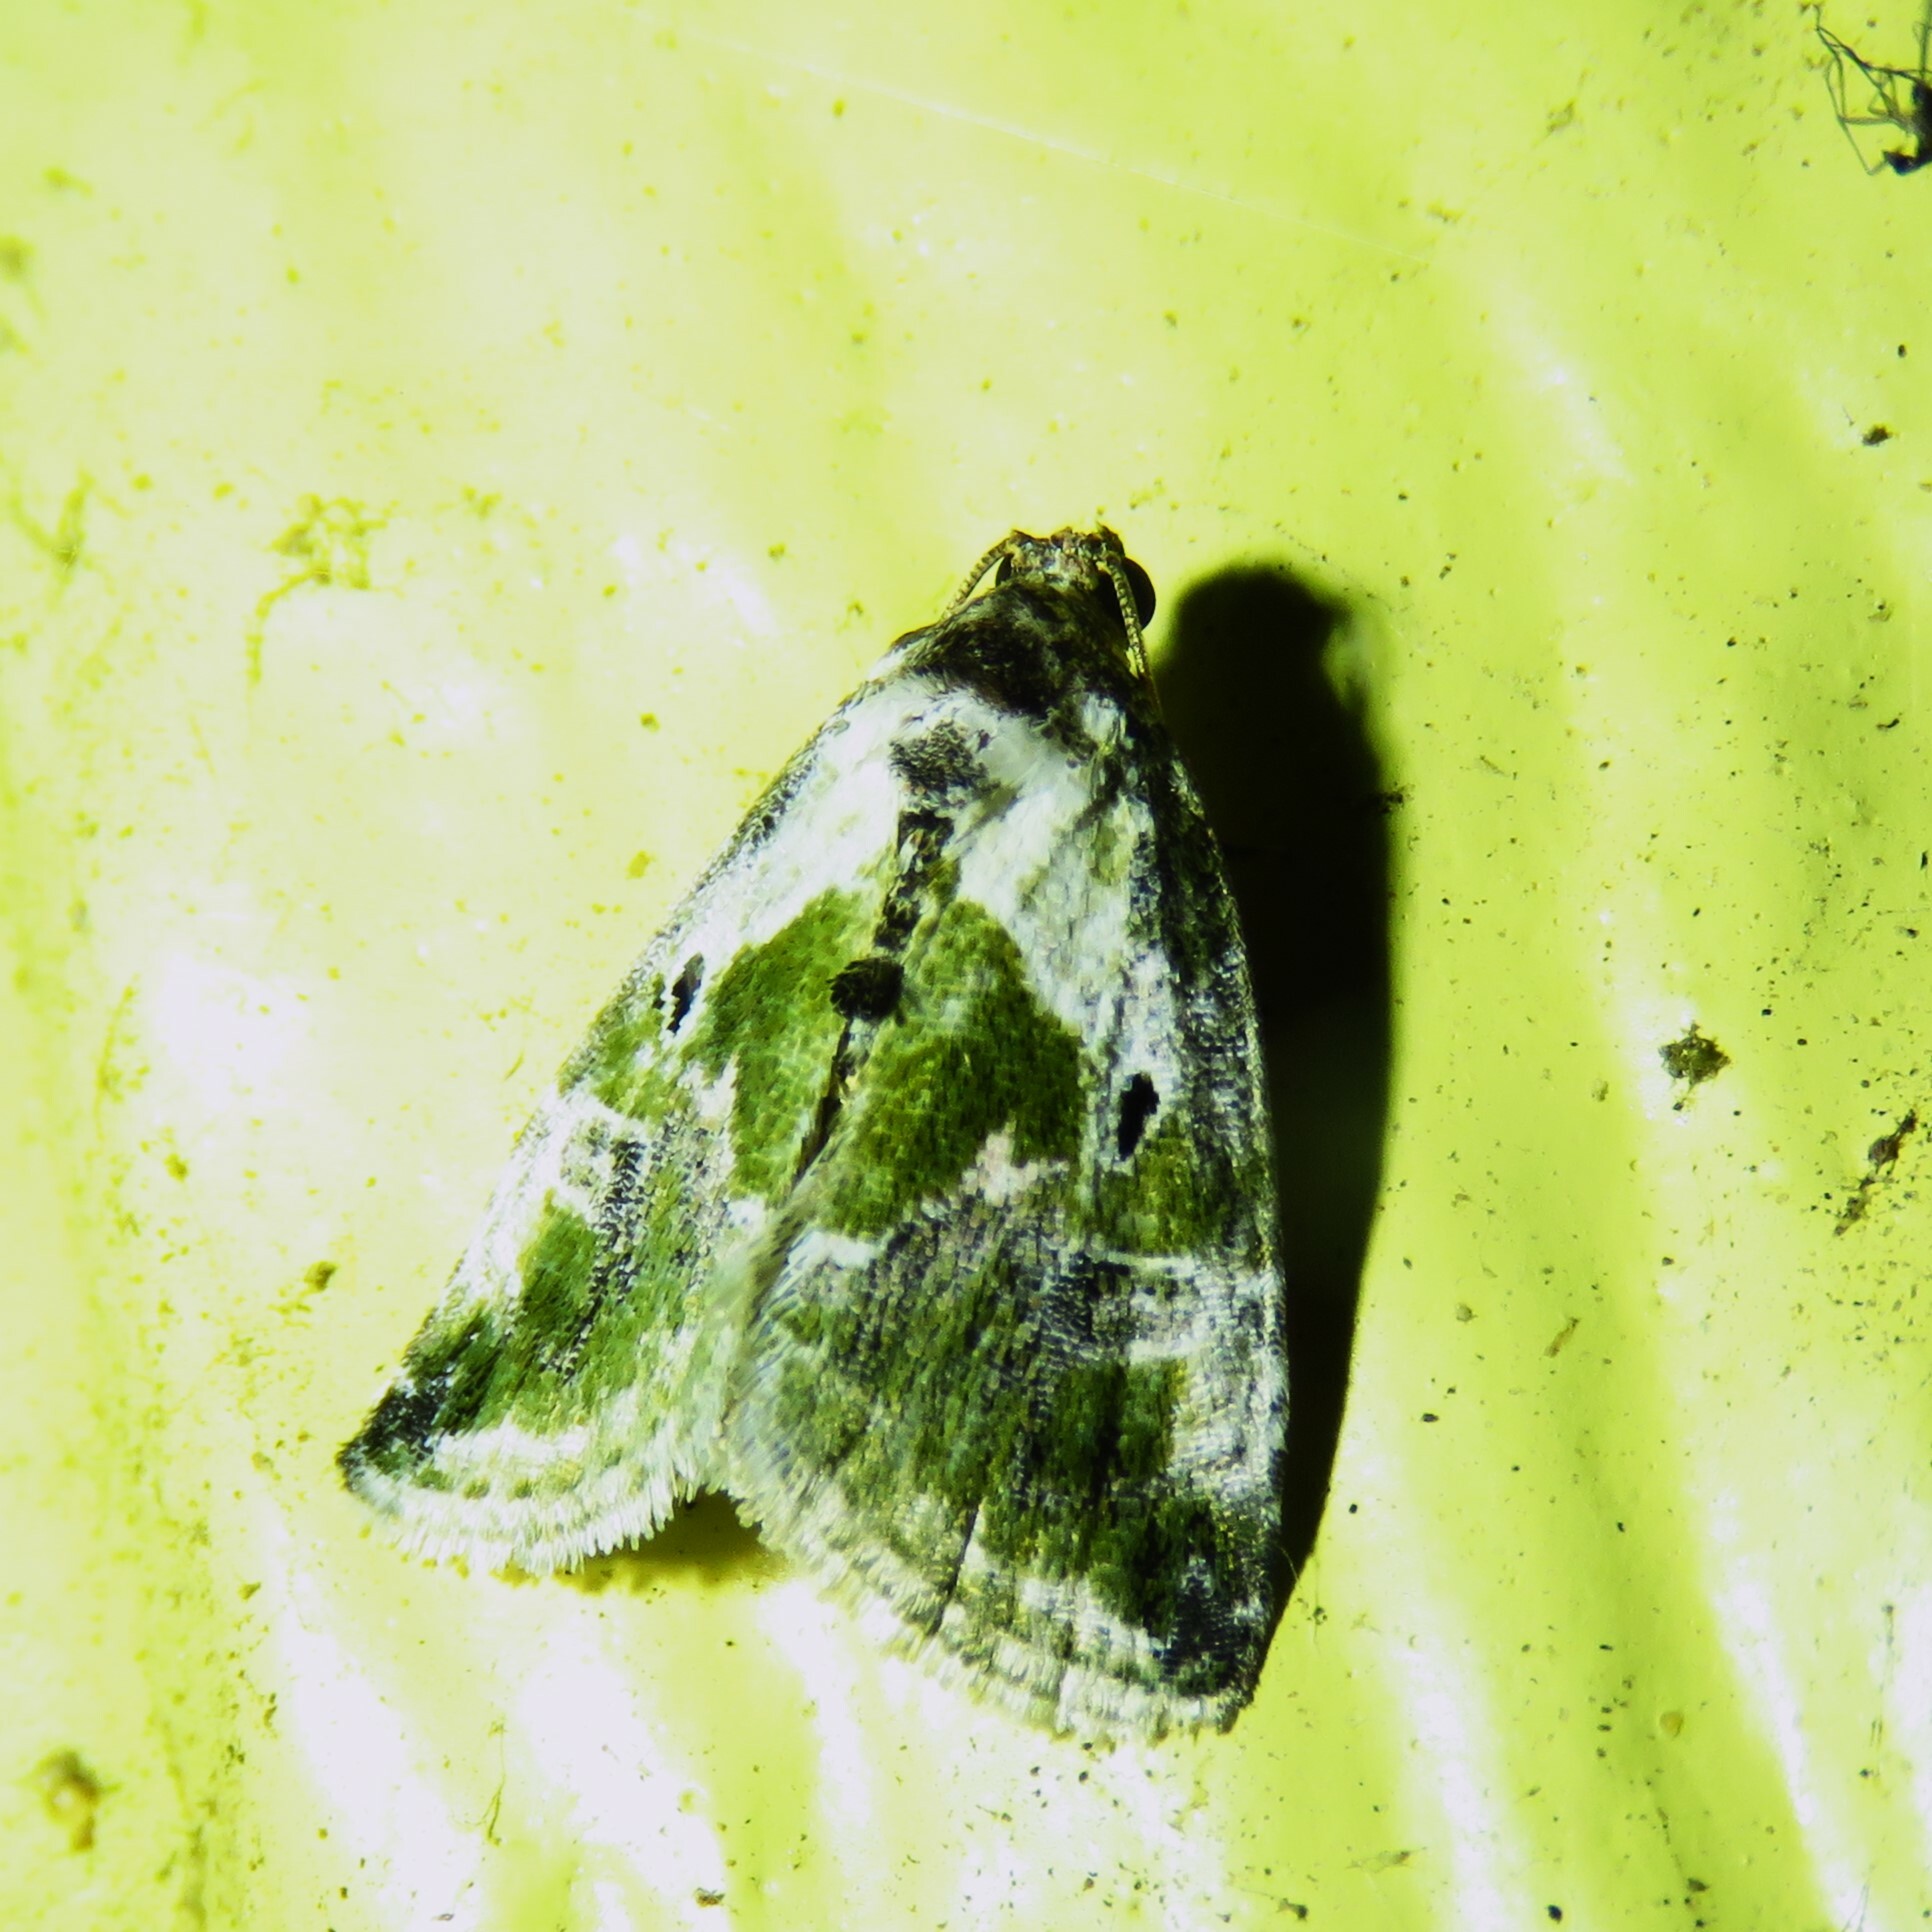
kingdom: Animalia
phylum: Arthropoda
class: Insecta
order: Lepidoptera
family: Noctuidae
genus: Maliattha
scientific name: Maliattha synochitis
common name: Black-dotted glyph
